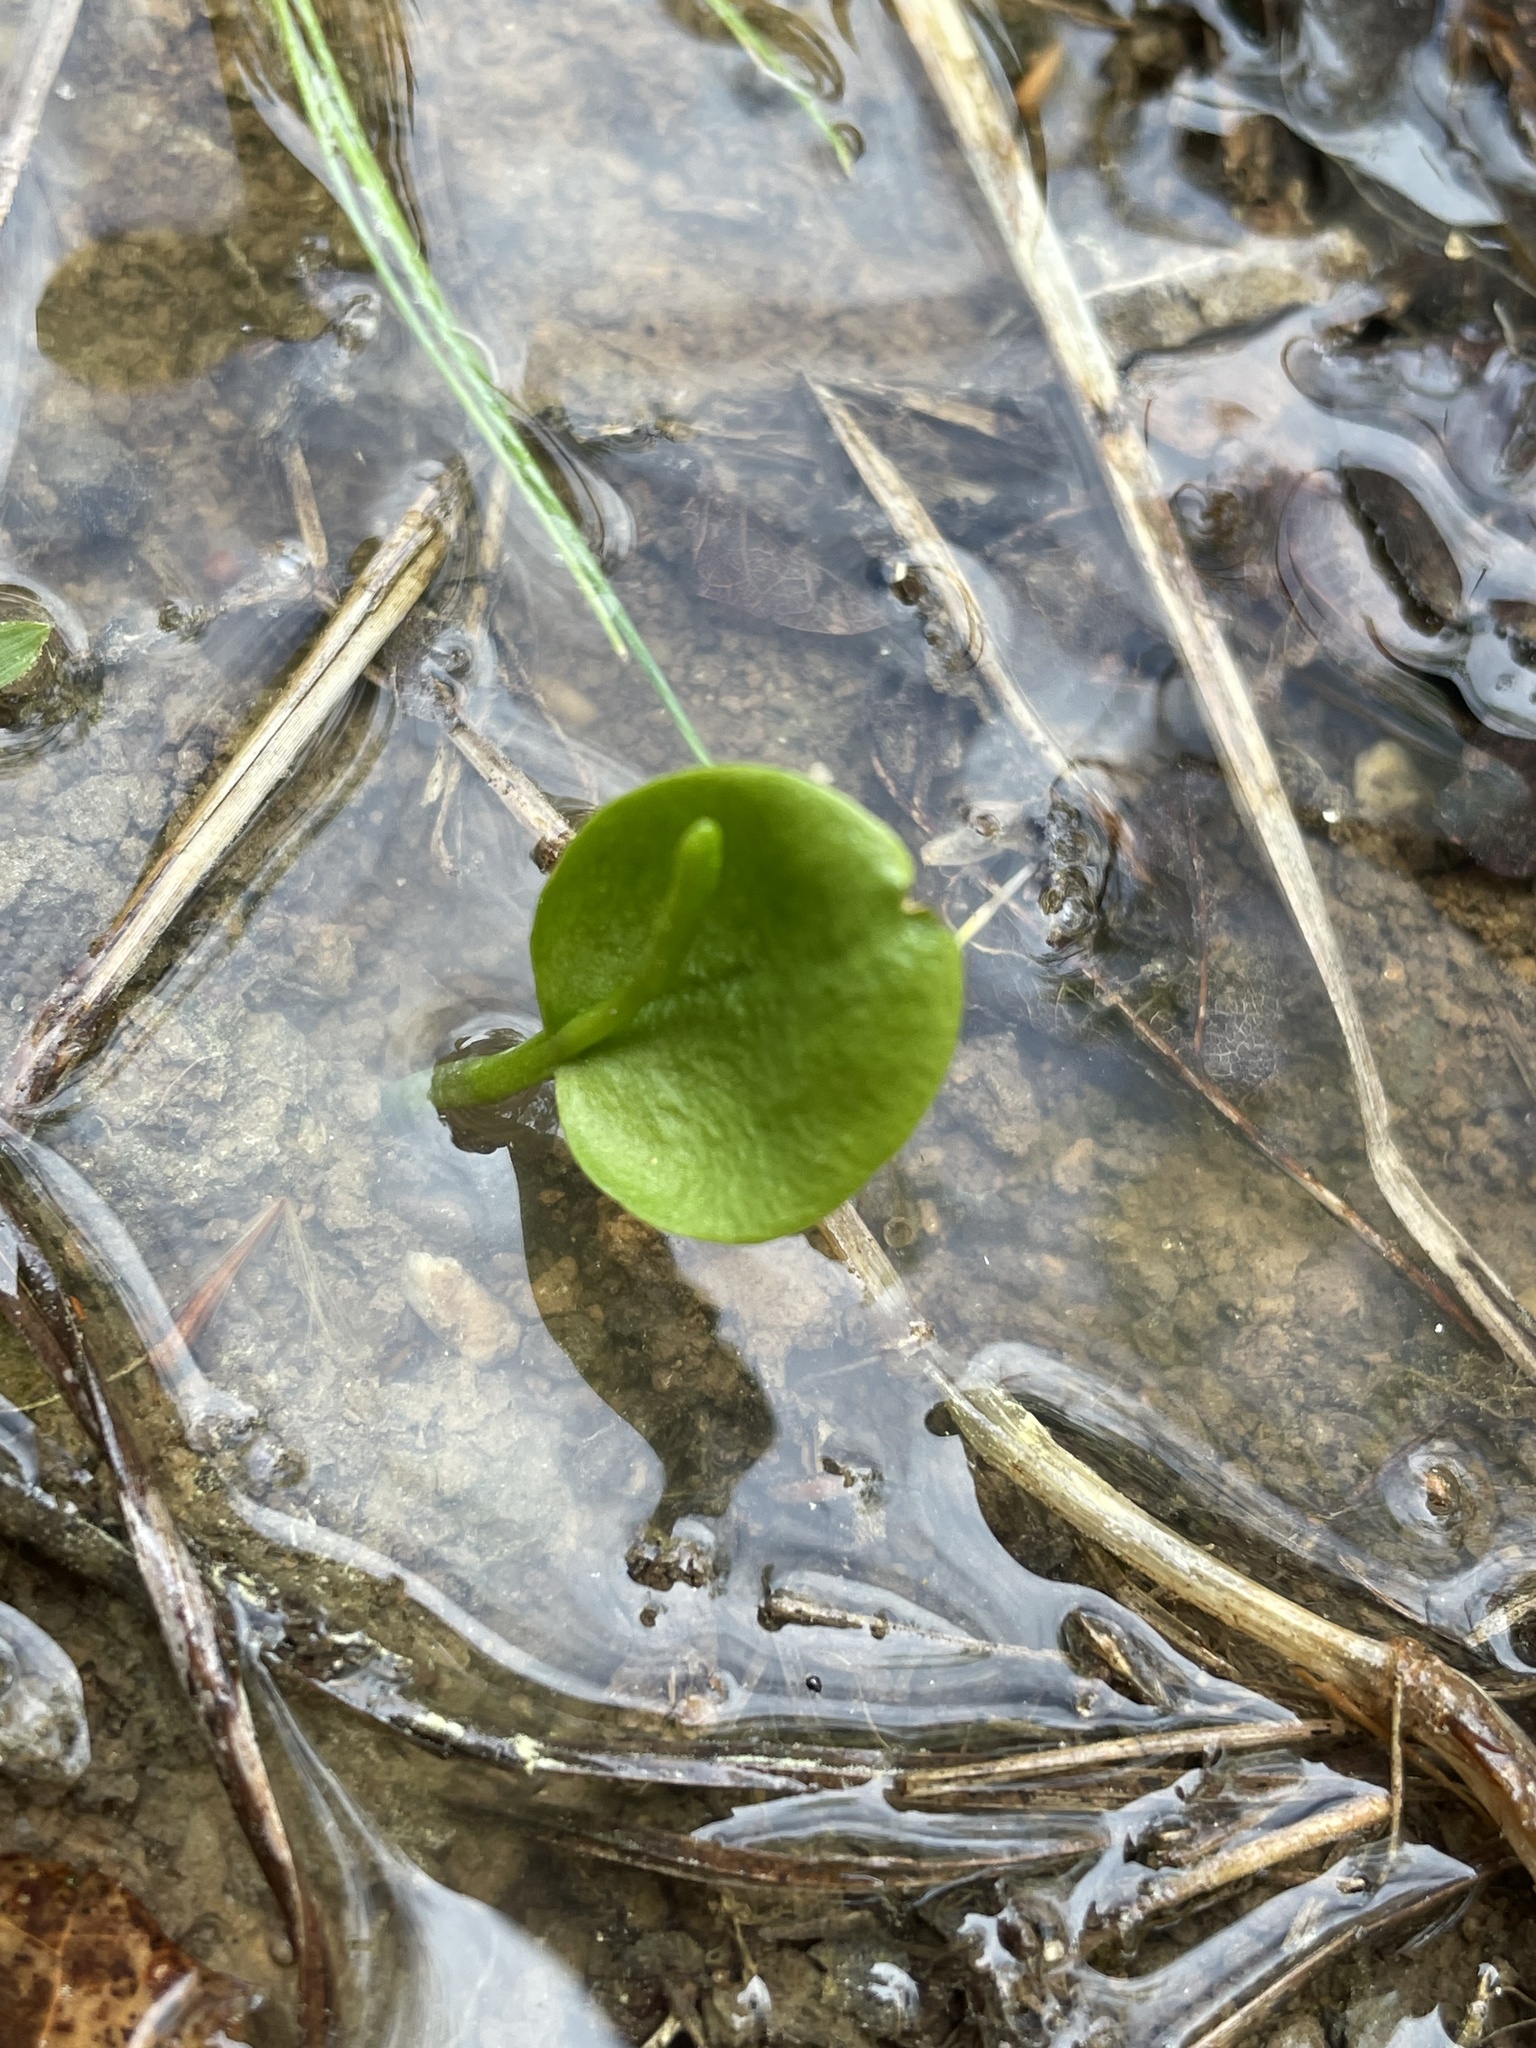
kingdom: Plantae
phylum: Tracheophyta
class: Polypodiopsida
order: Ophioglossales
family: Ophioglossaceae
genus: Ophioglossum
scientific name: Ophioglossum vulgatum
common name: Adder's-tongue
